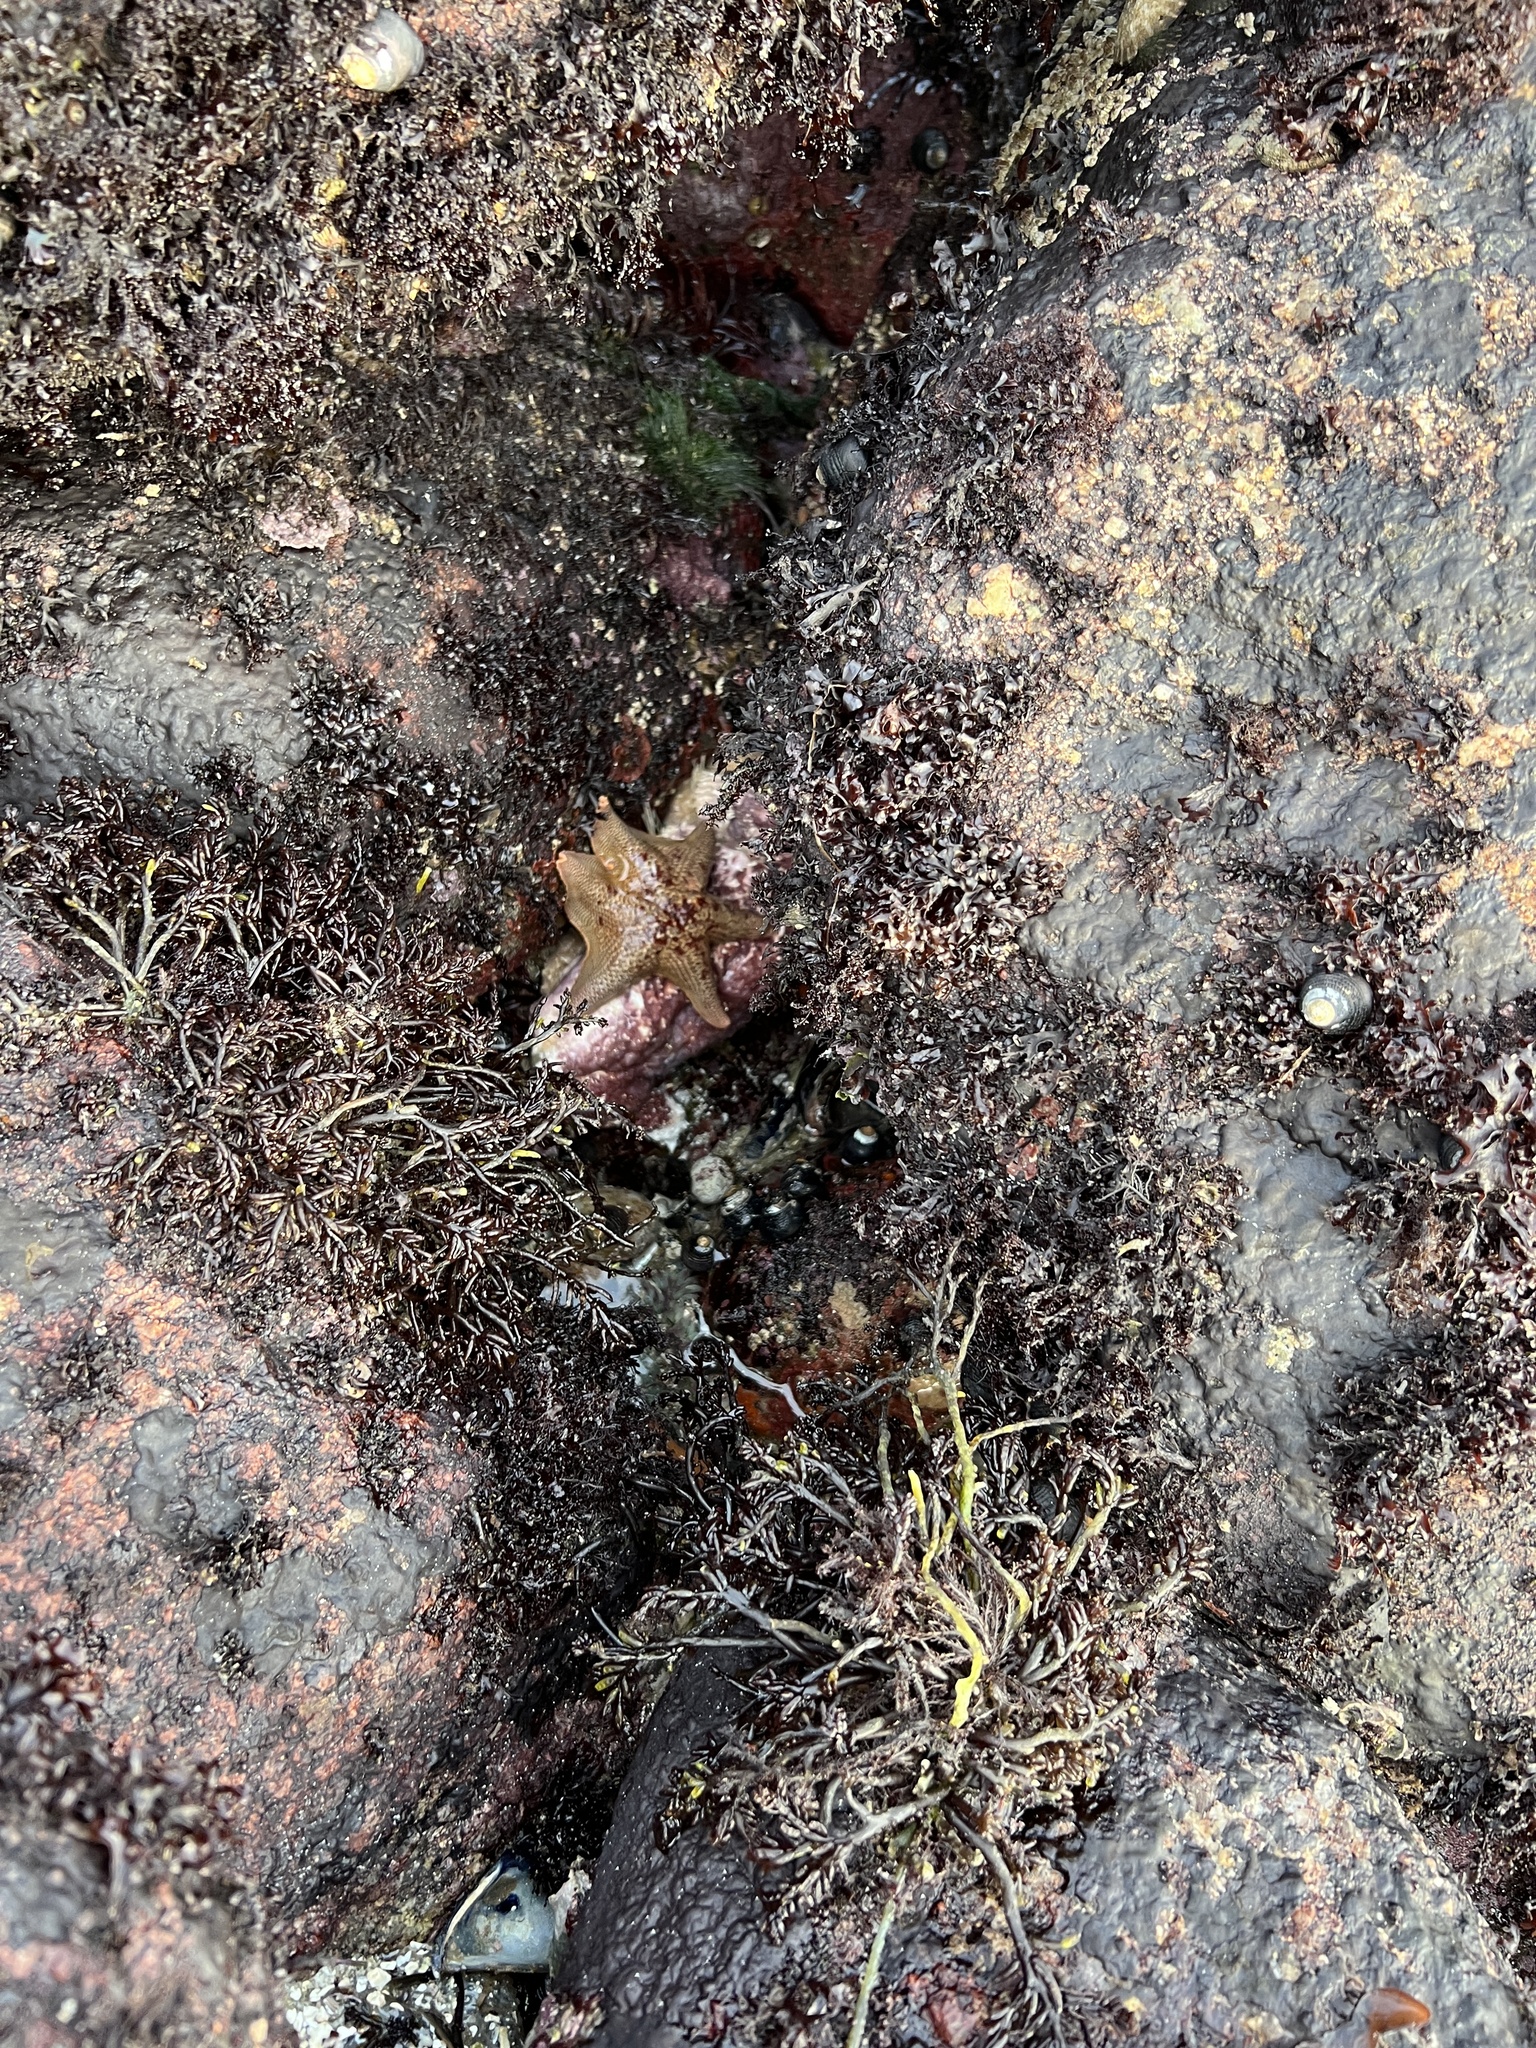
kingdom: Animalia
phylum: Echinodermata
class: Asteroidea
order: Valvatida
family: Asterinidae
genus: Patiria
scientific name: Patiria miniata
